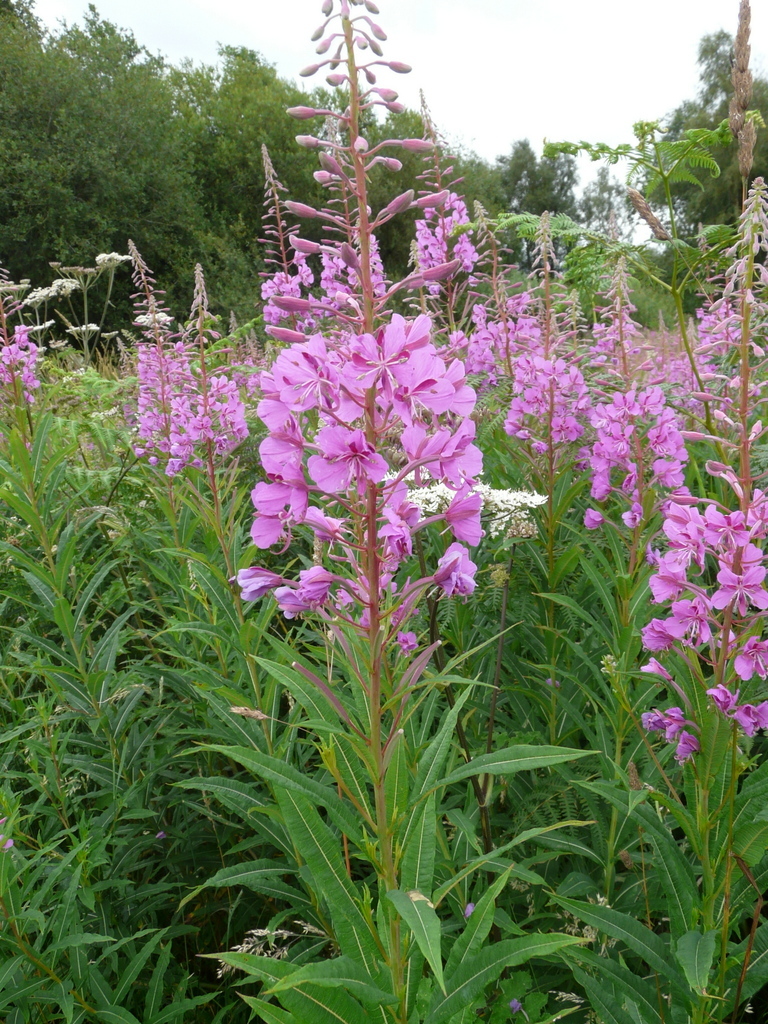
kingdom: Plantae
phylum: Tracheophyta
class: Magnoliopsida
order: Myrtales
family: Onagraceae
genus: Chamaenerion
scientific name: Chamaenerion angustifolium
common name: Fireweed
